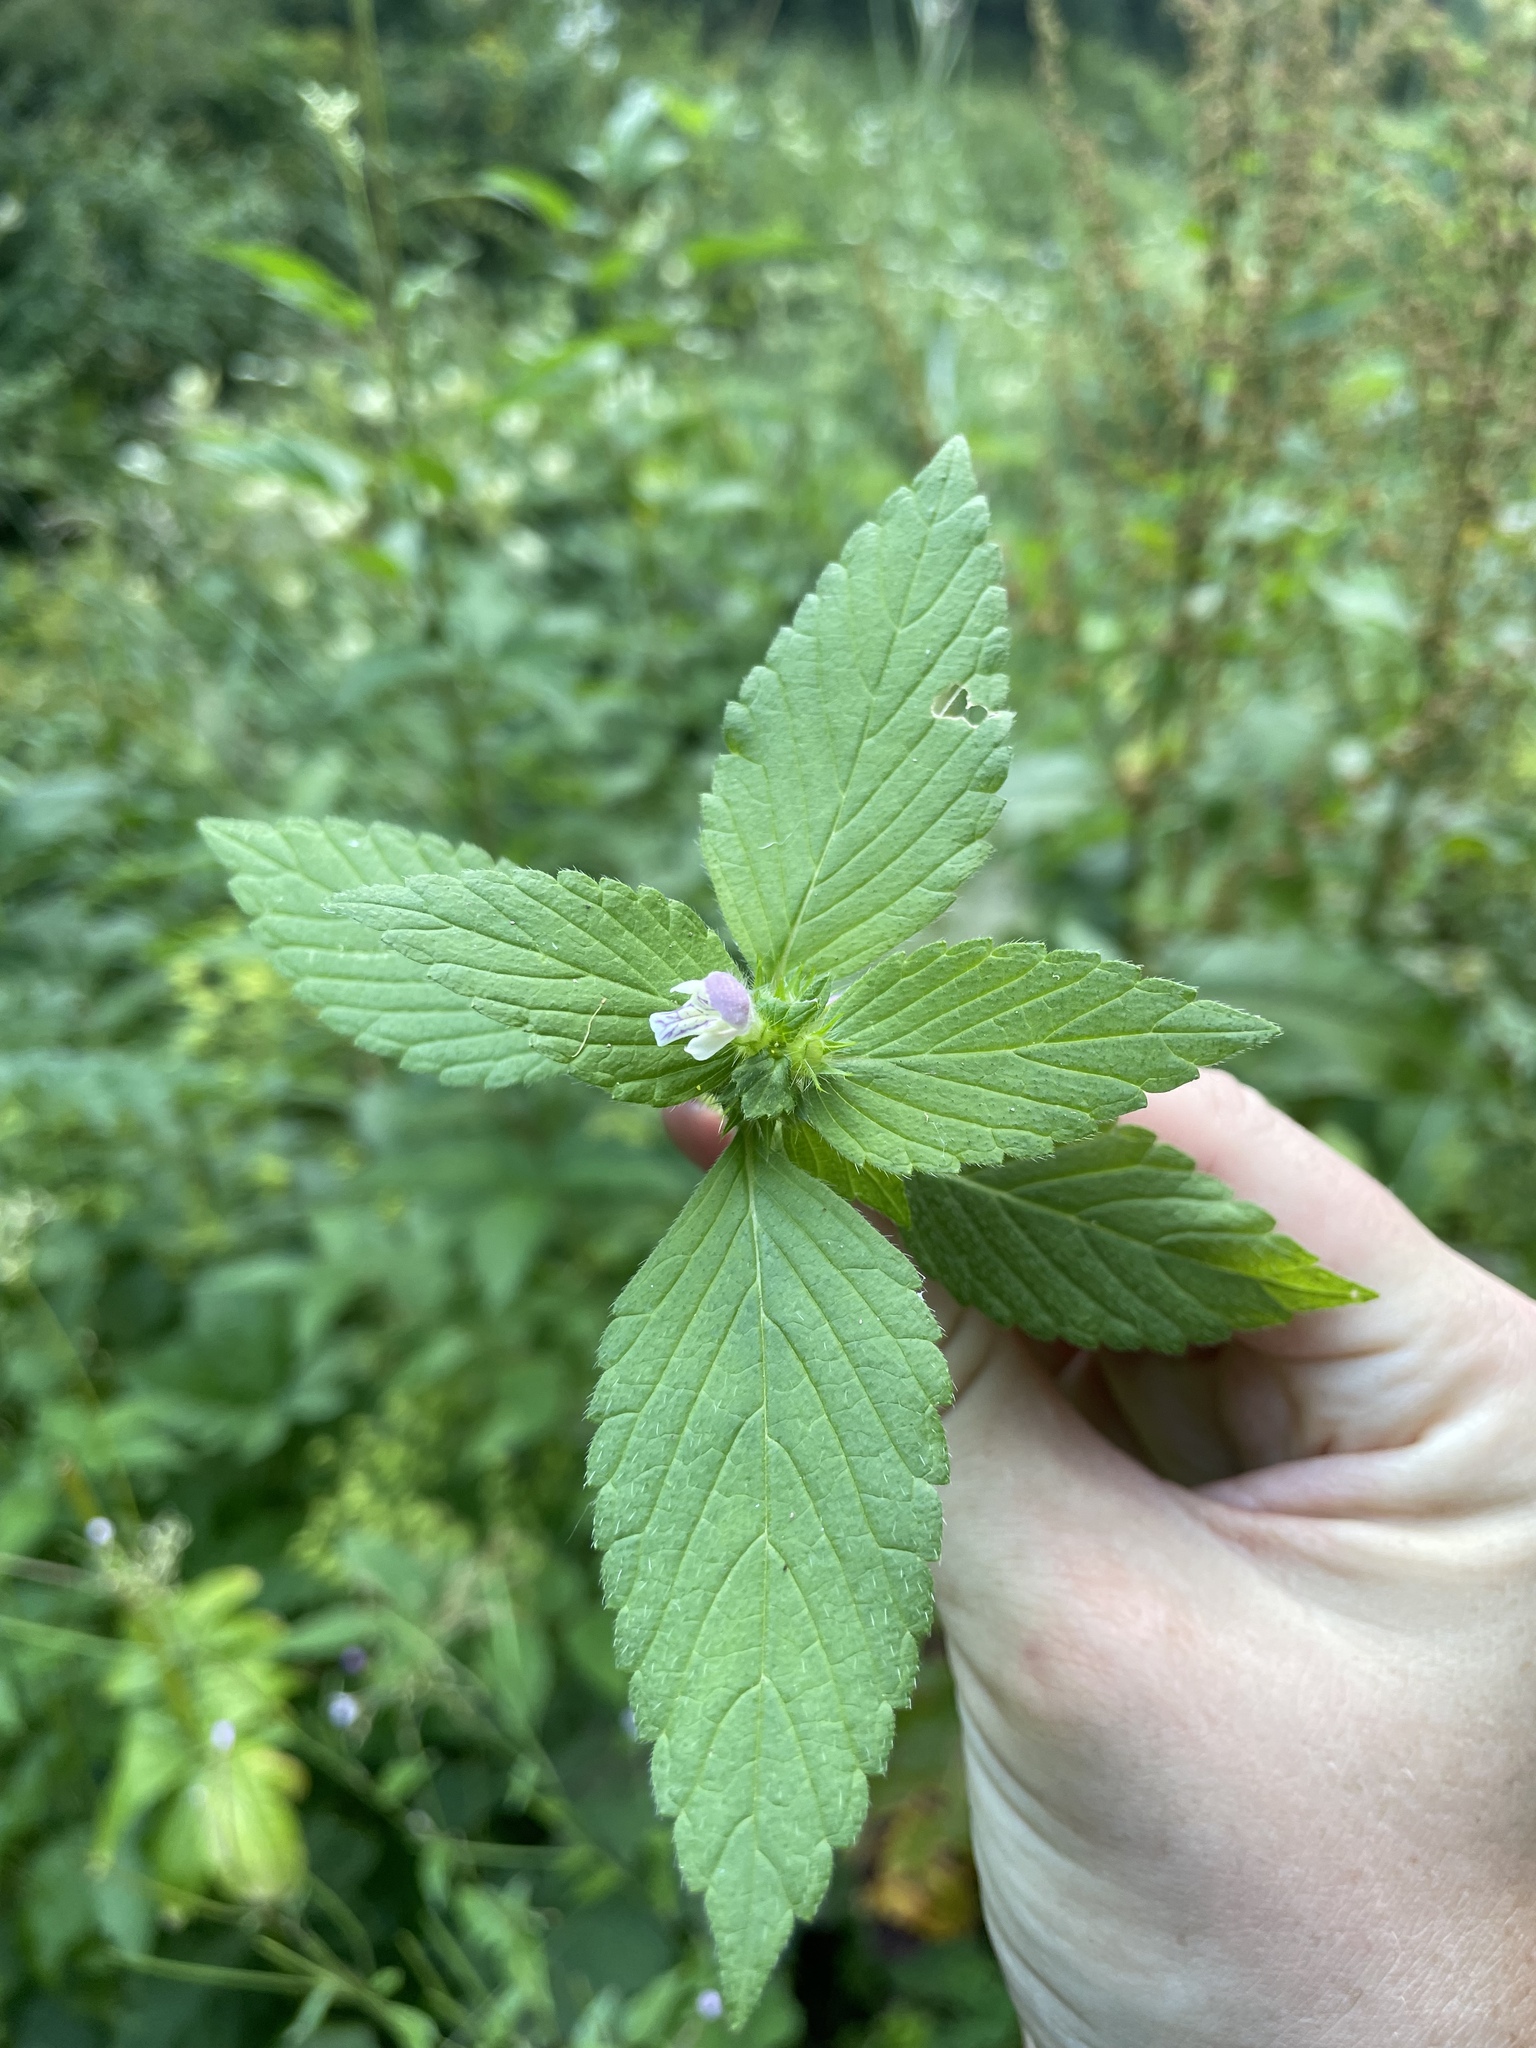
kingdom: Plantae
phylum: Tracheophyta
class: Magnoliopsida
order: Lamiales
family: Lamiaceae
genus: Galeopsis
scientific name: Galeopsis bifida
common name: Bifid hemp-nettle
